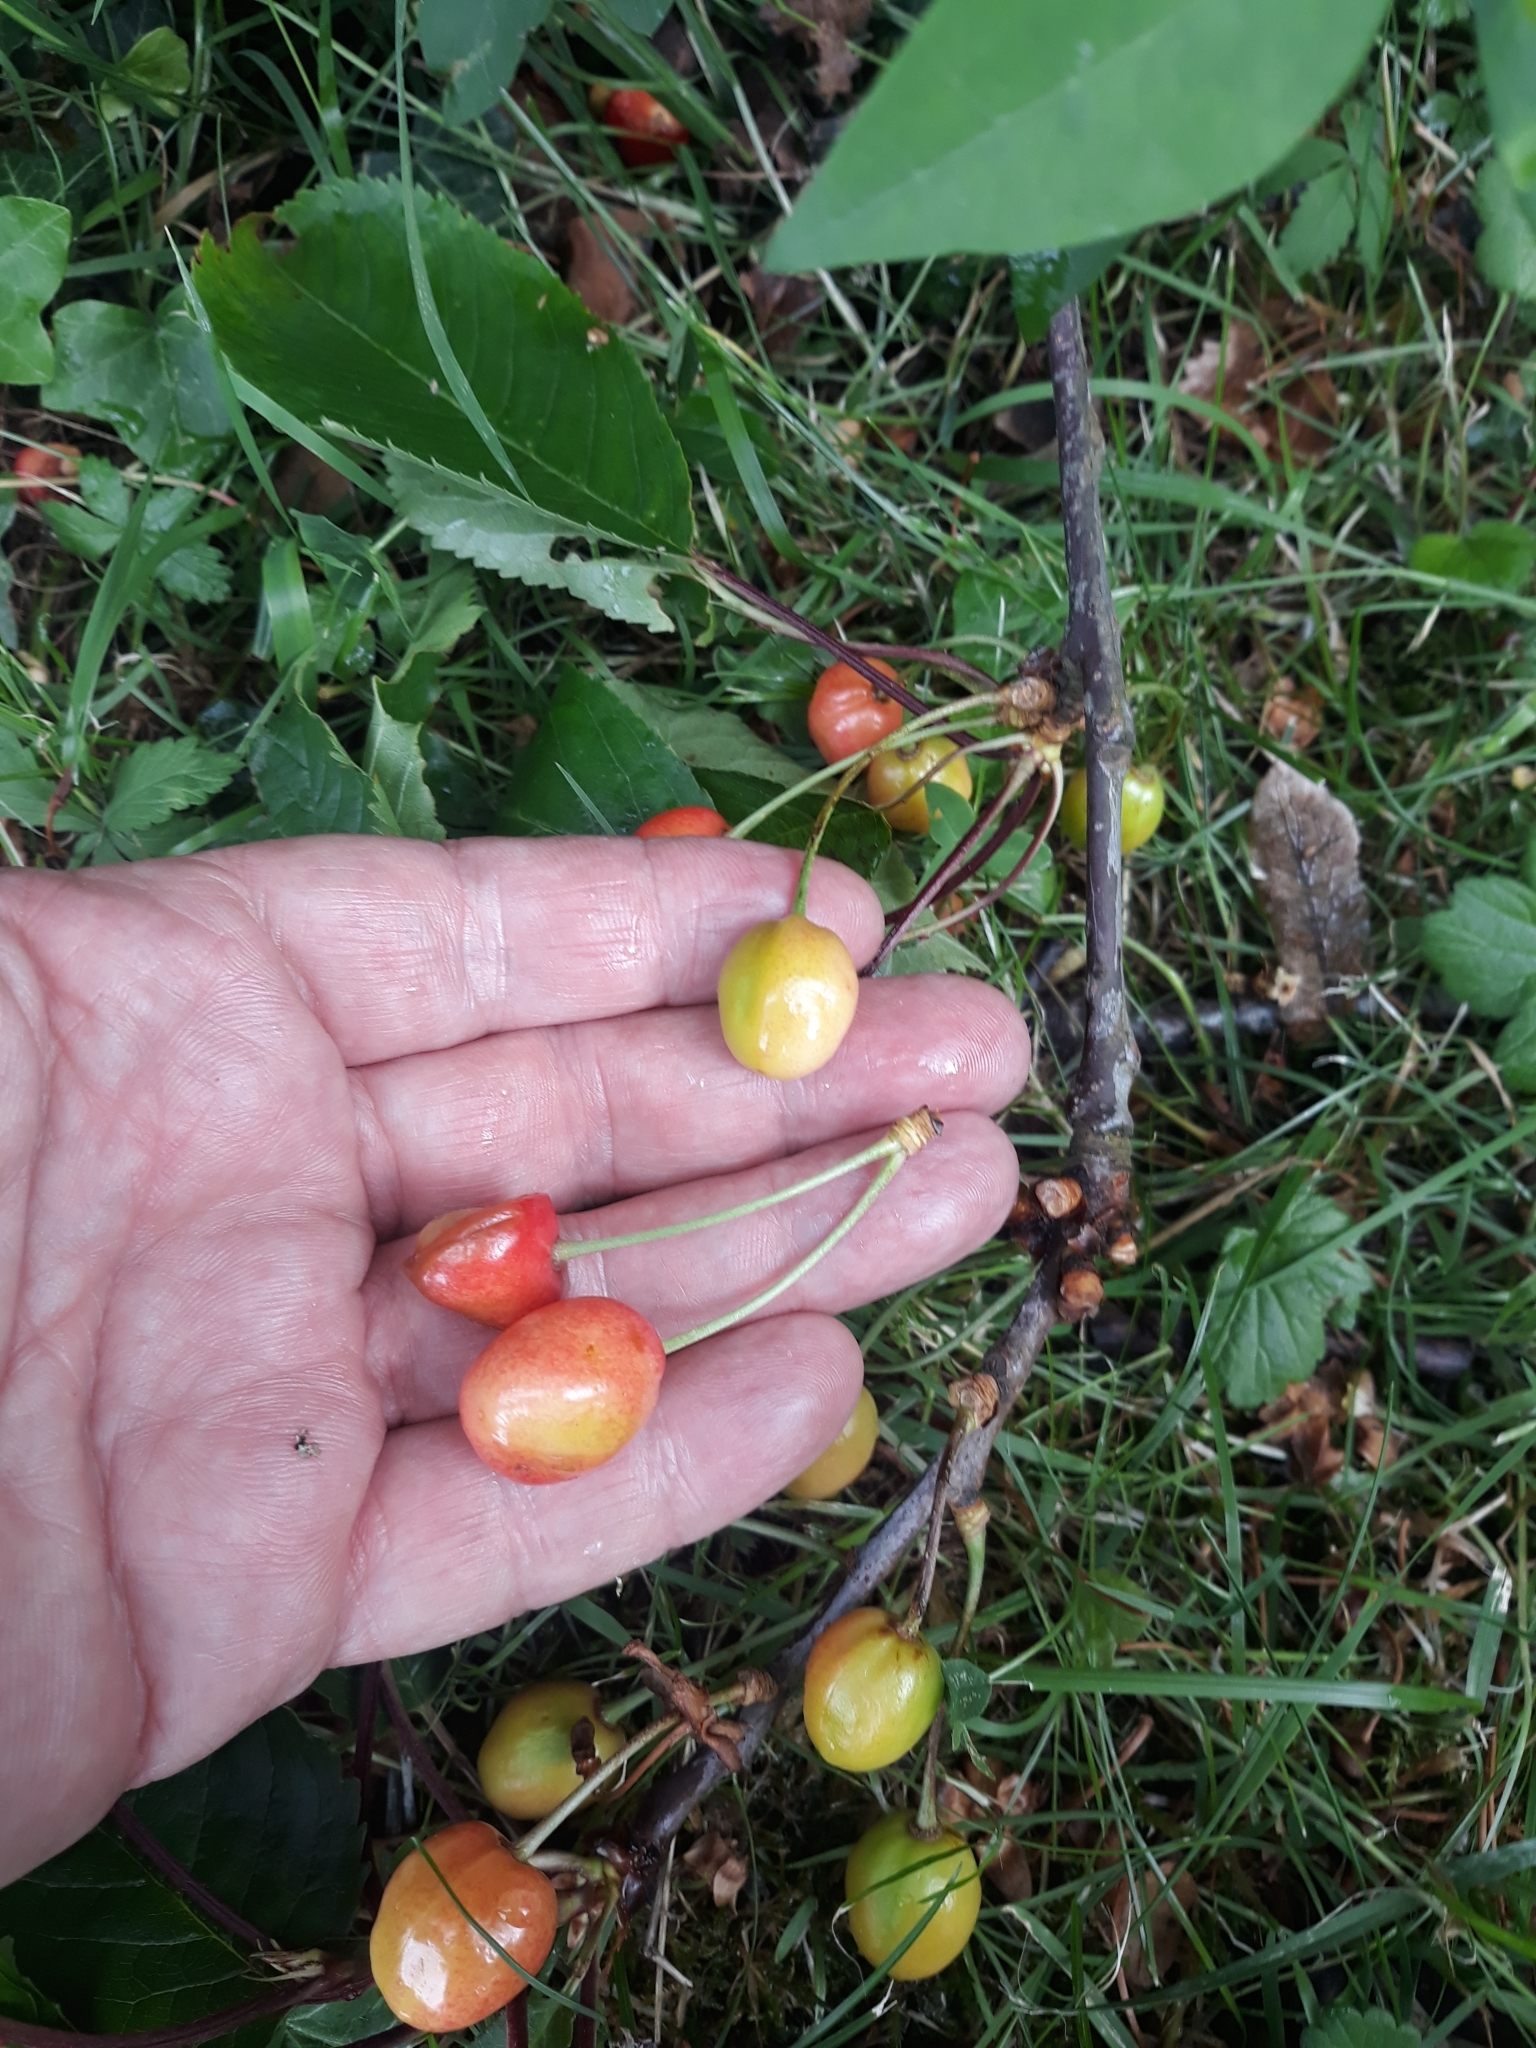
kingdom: Plantae
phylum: Tracheophyta
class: Magnoliopsida
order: Rosales
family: Rosaceae
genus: Prunus
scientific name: Prunus avium
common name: Sweet cherry
